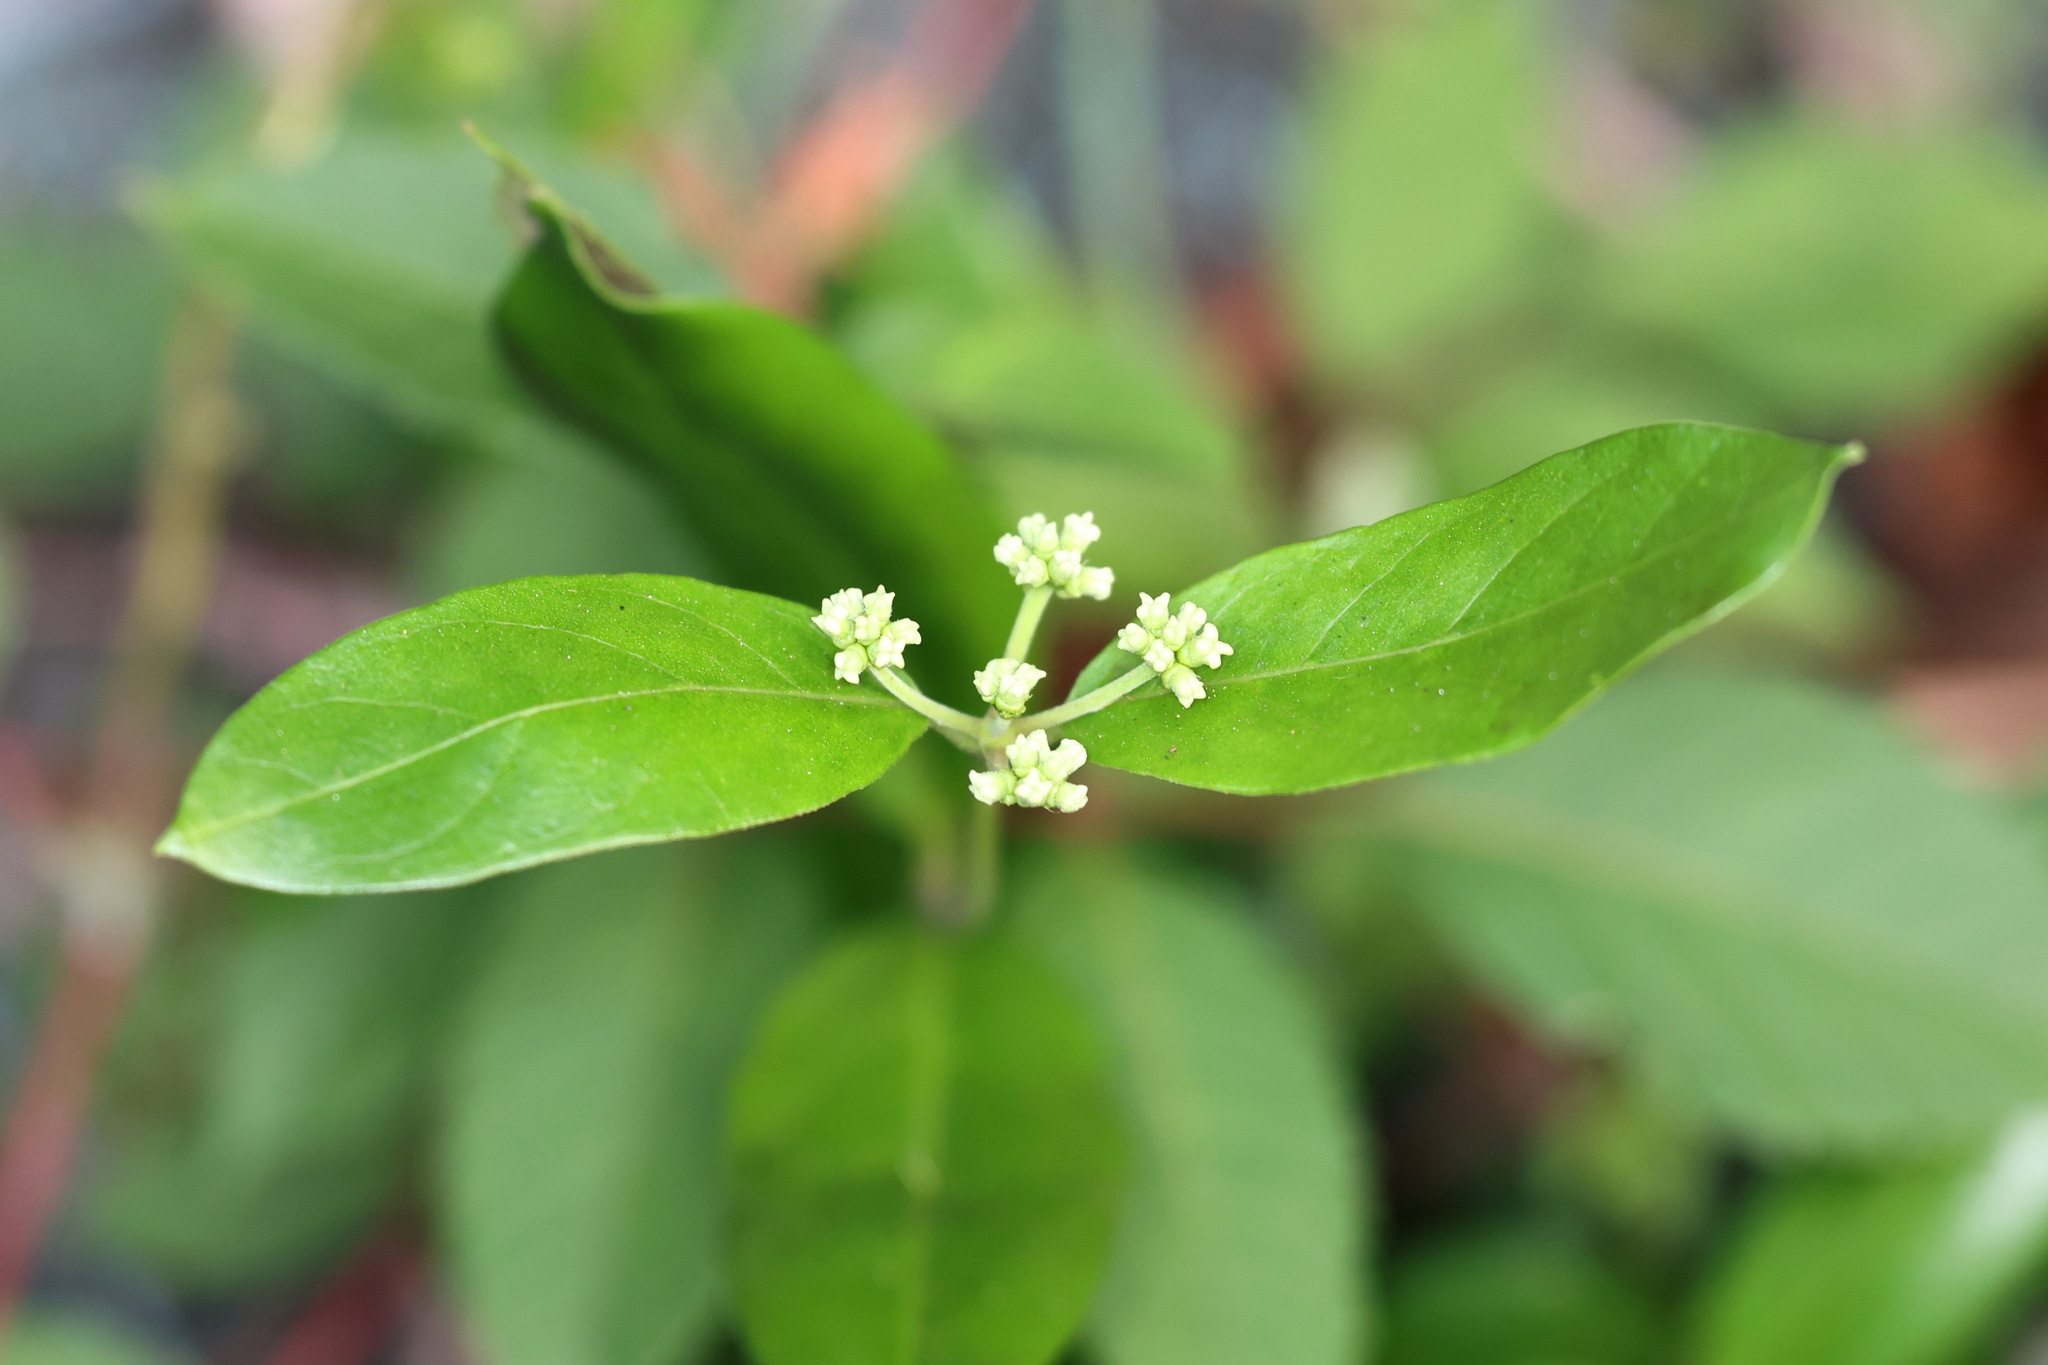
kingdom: Plantae
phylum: Tracheophyta
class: Magnoliopsida
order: Gentianales
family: Rubiaceae
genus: Gynochthodes
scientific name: Gynochthodes parvifolia
